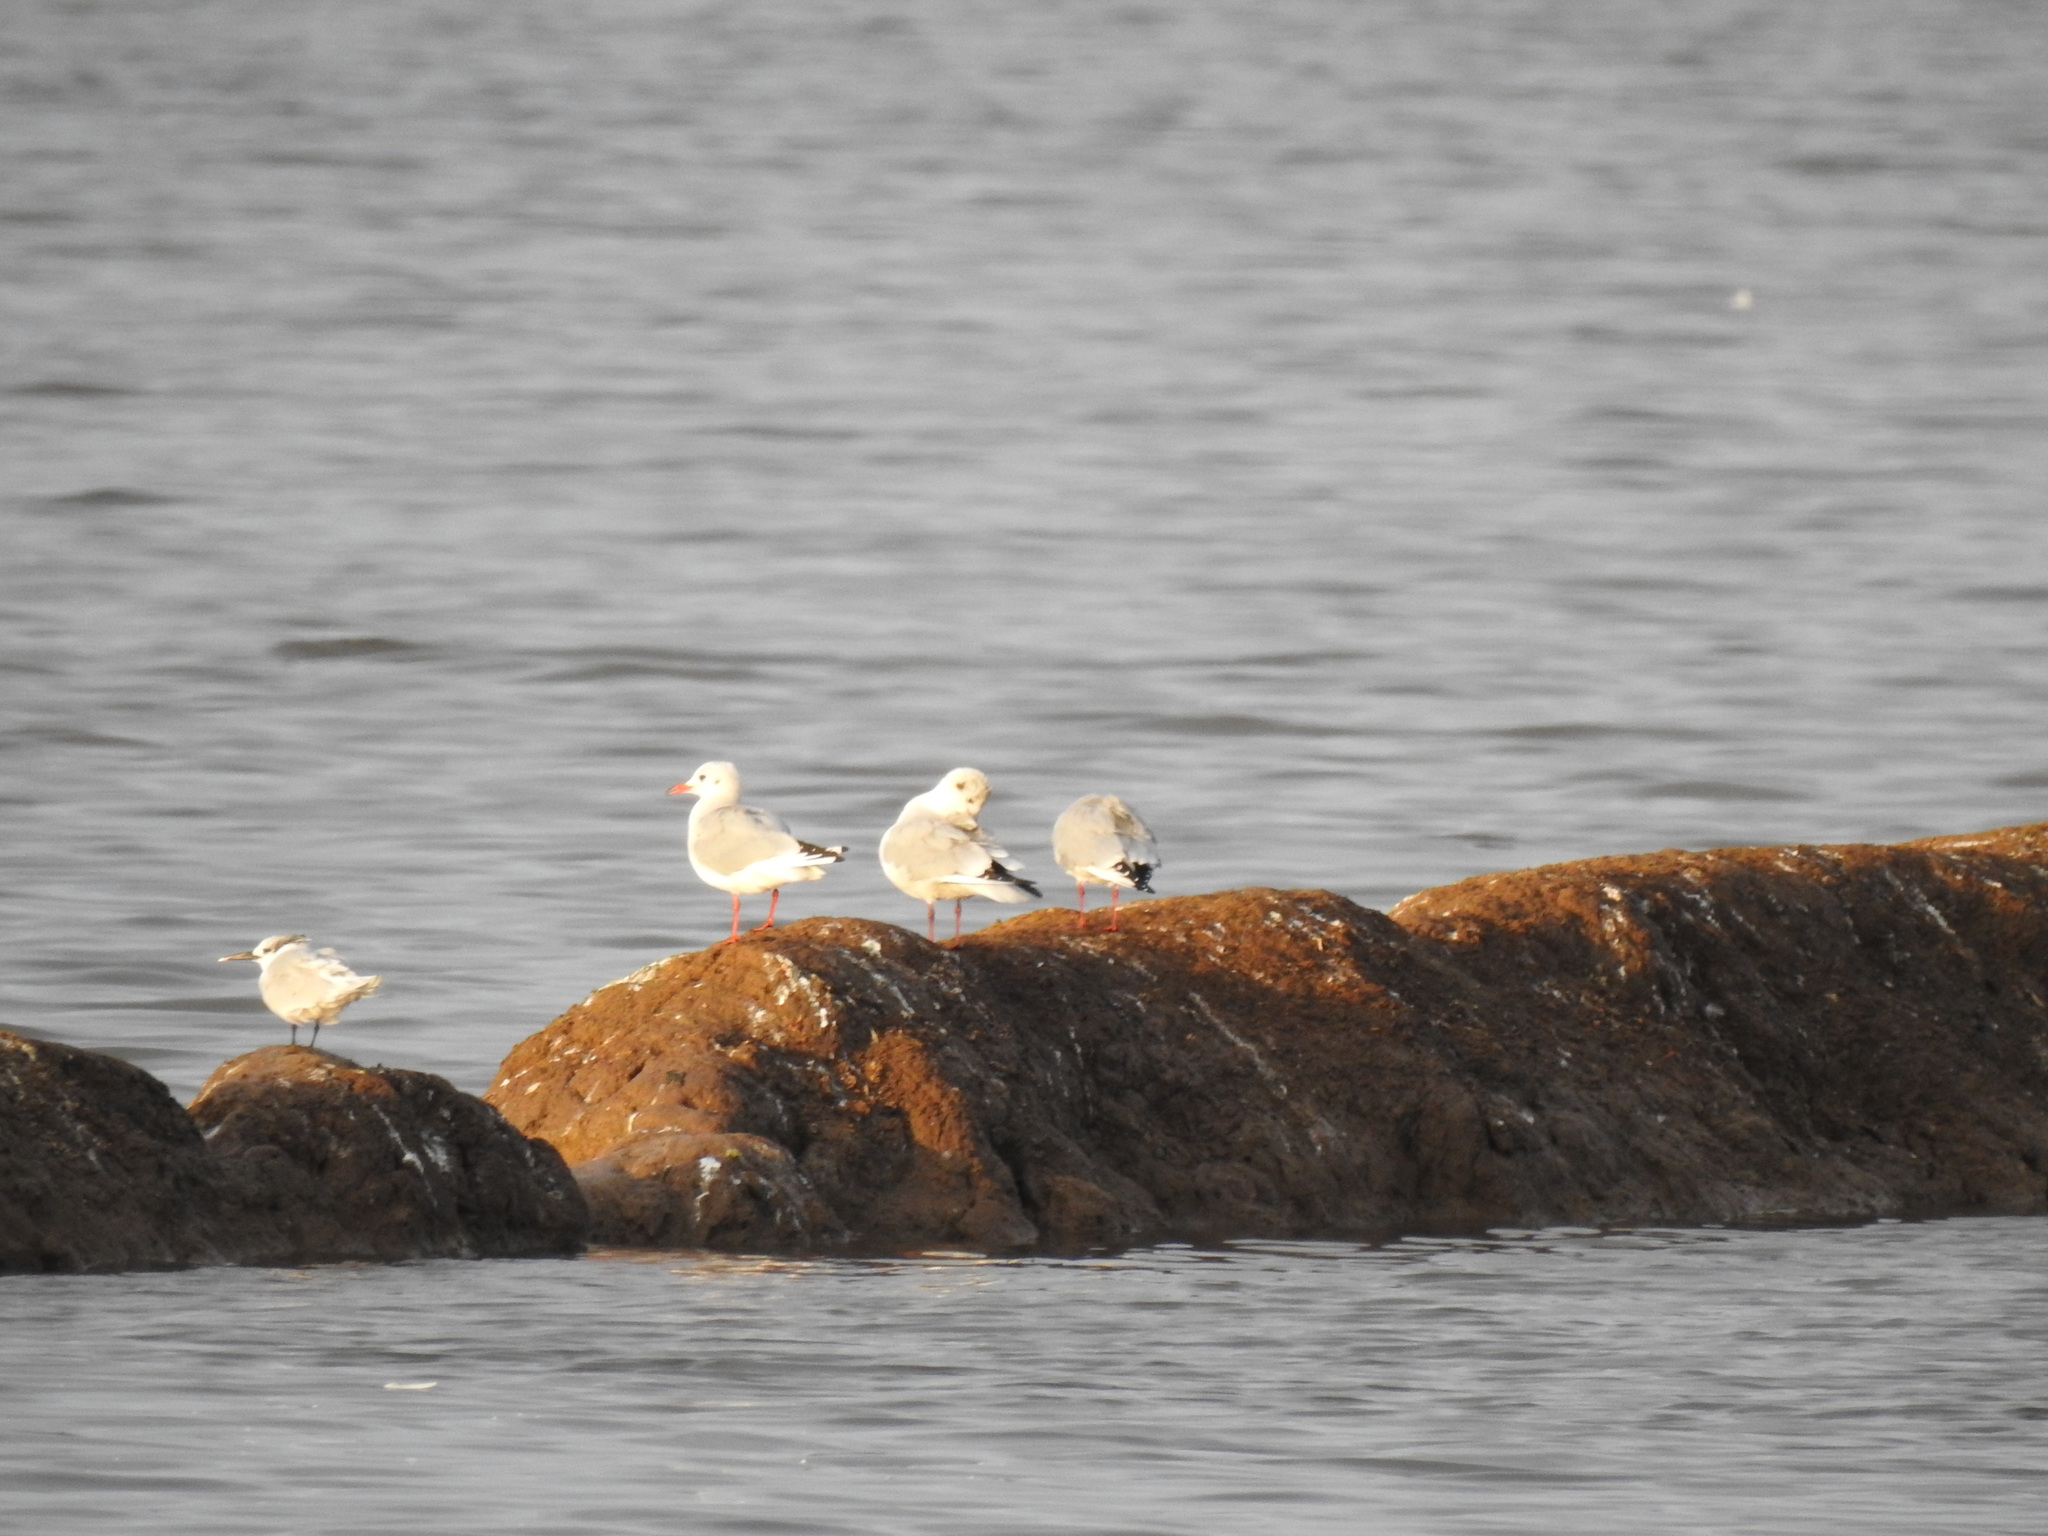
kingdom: Animalia
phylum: Chordata
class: Aves
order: Charadriiformes
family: Laridae
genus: Chroicocephalus
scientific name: Chroicocephalus ridibundus
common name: Black-headed gull
